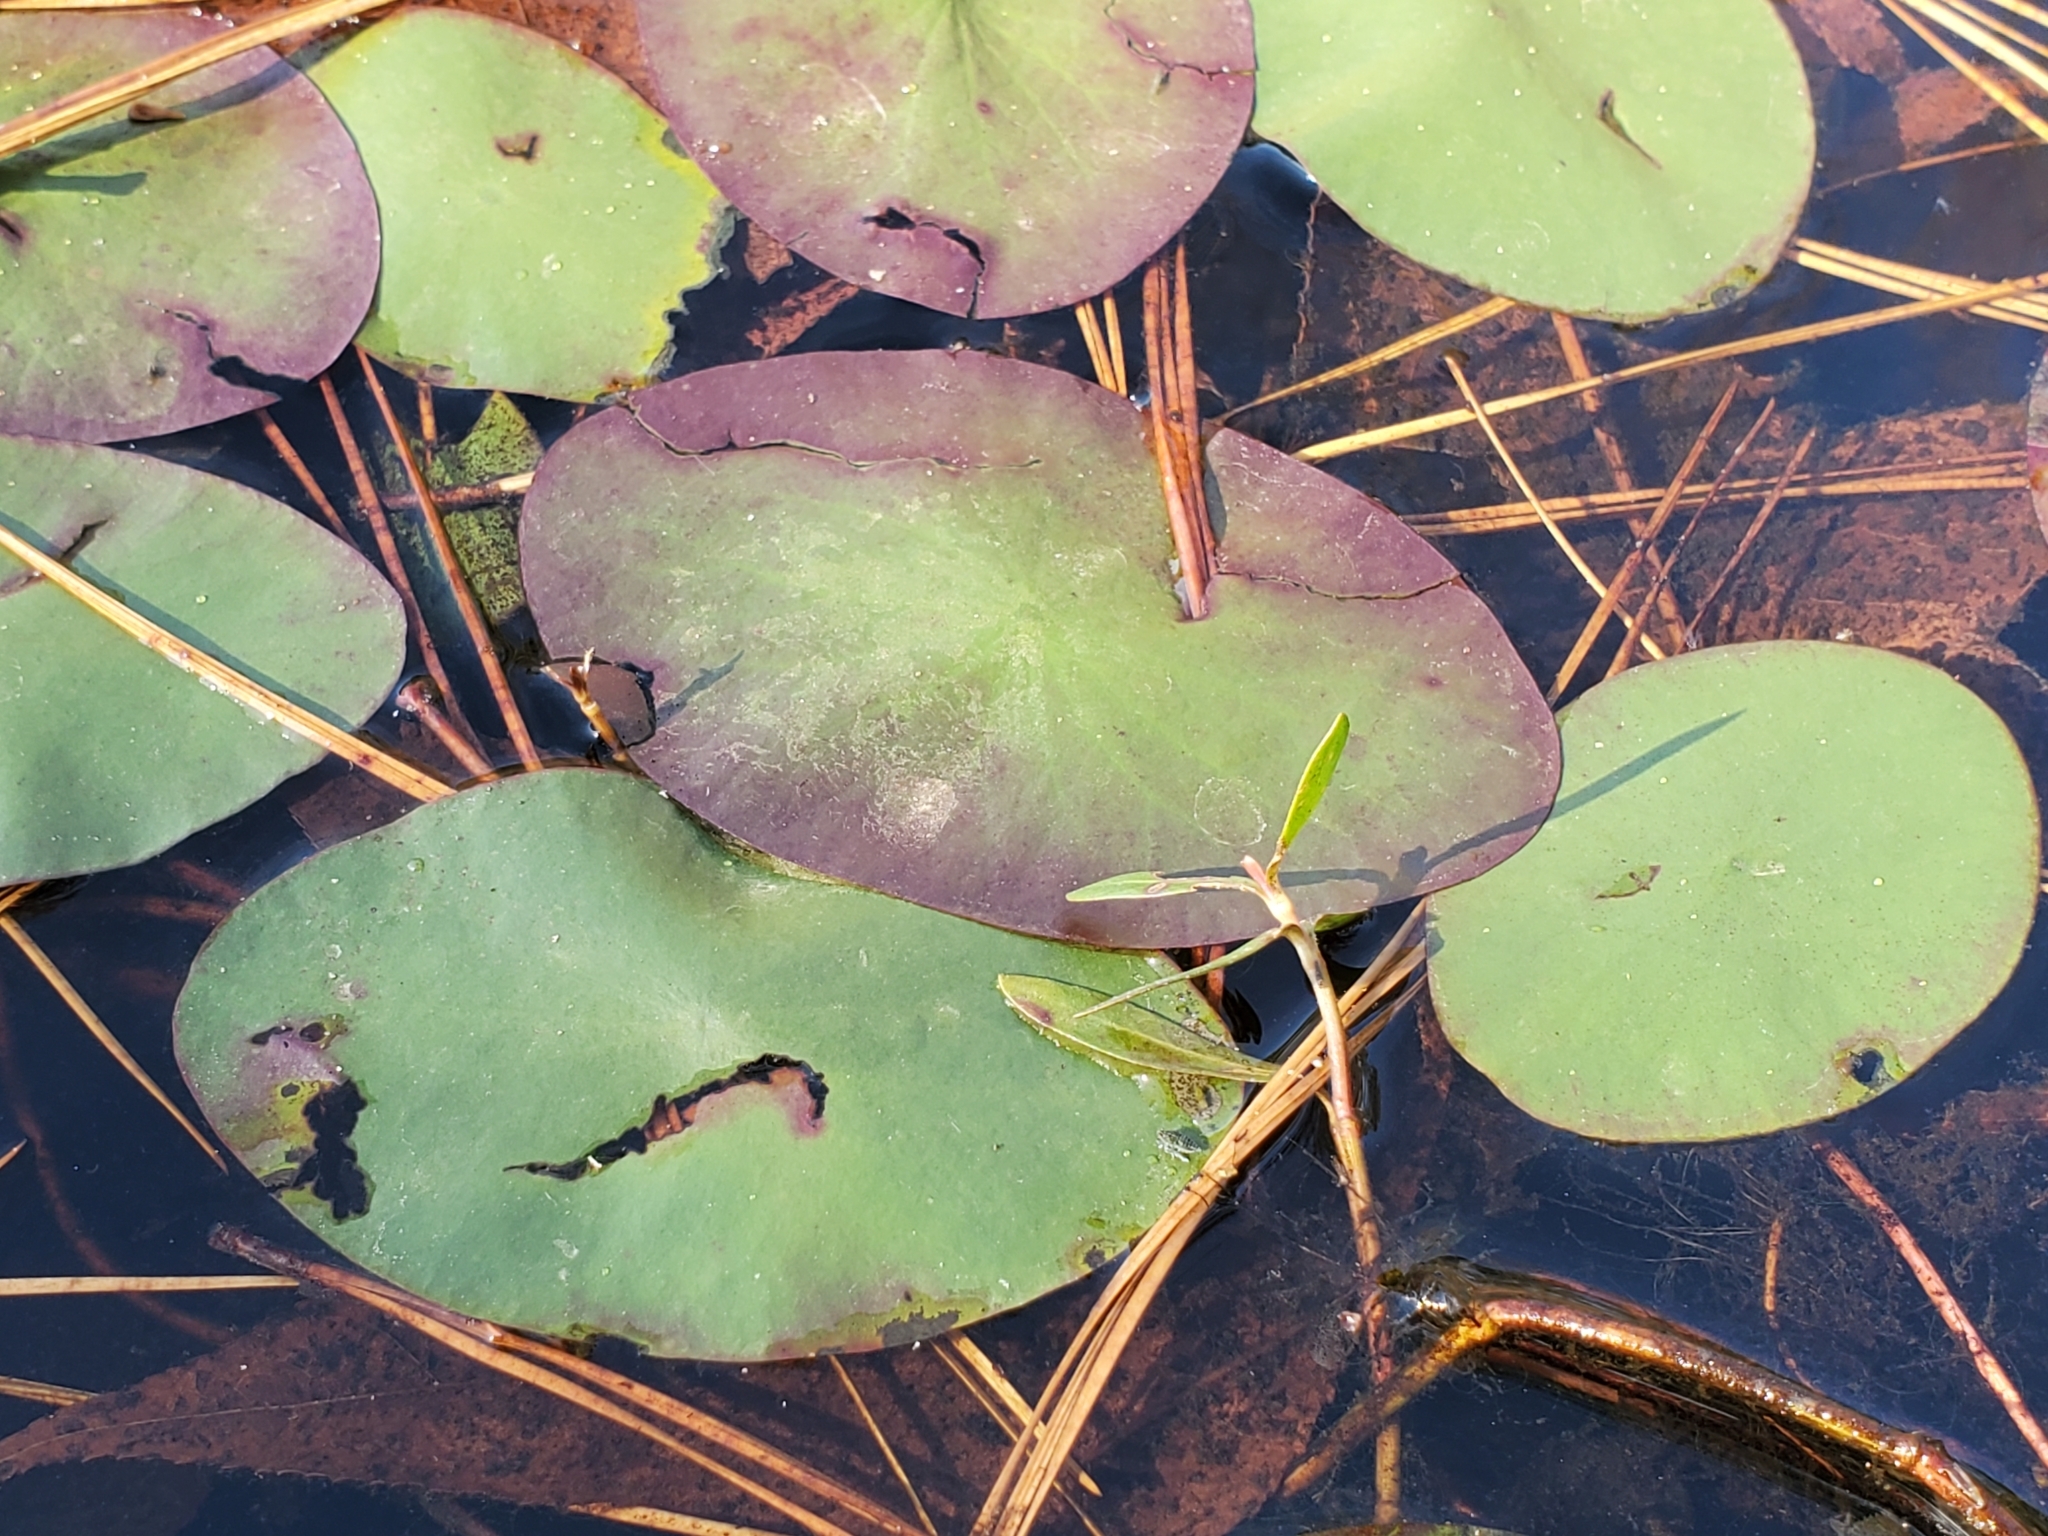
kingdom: Plantae
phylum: Tracheophyta
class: Magnoliopsida
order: Nymphaeales
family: Cabombaceae
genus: Brasenia
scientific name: Brasenia schreberi
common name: Water-shield
